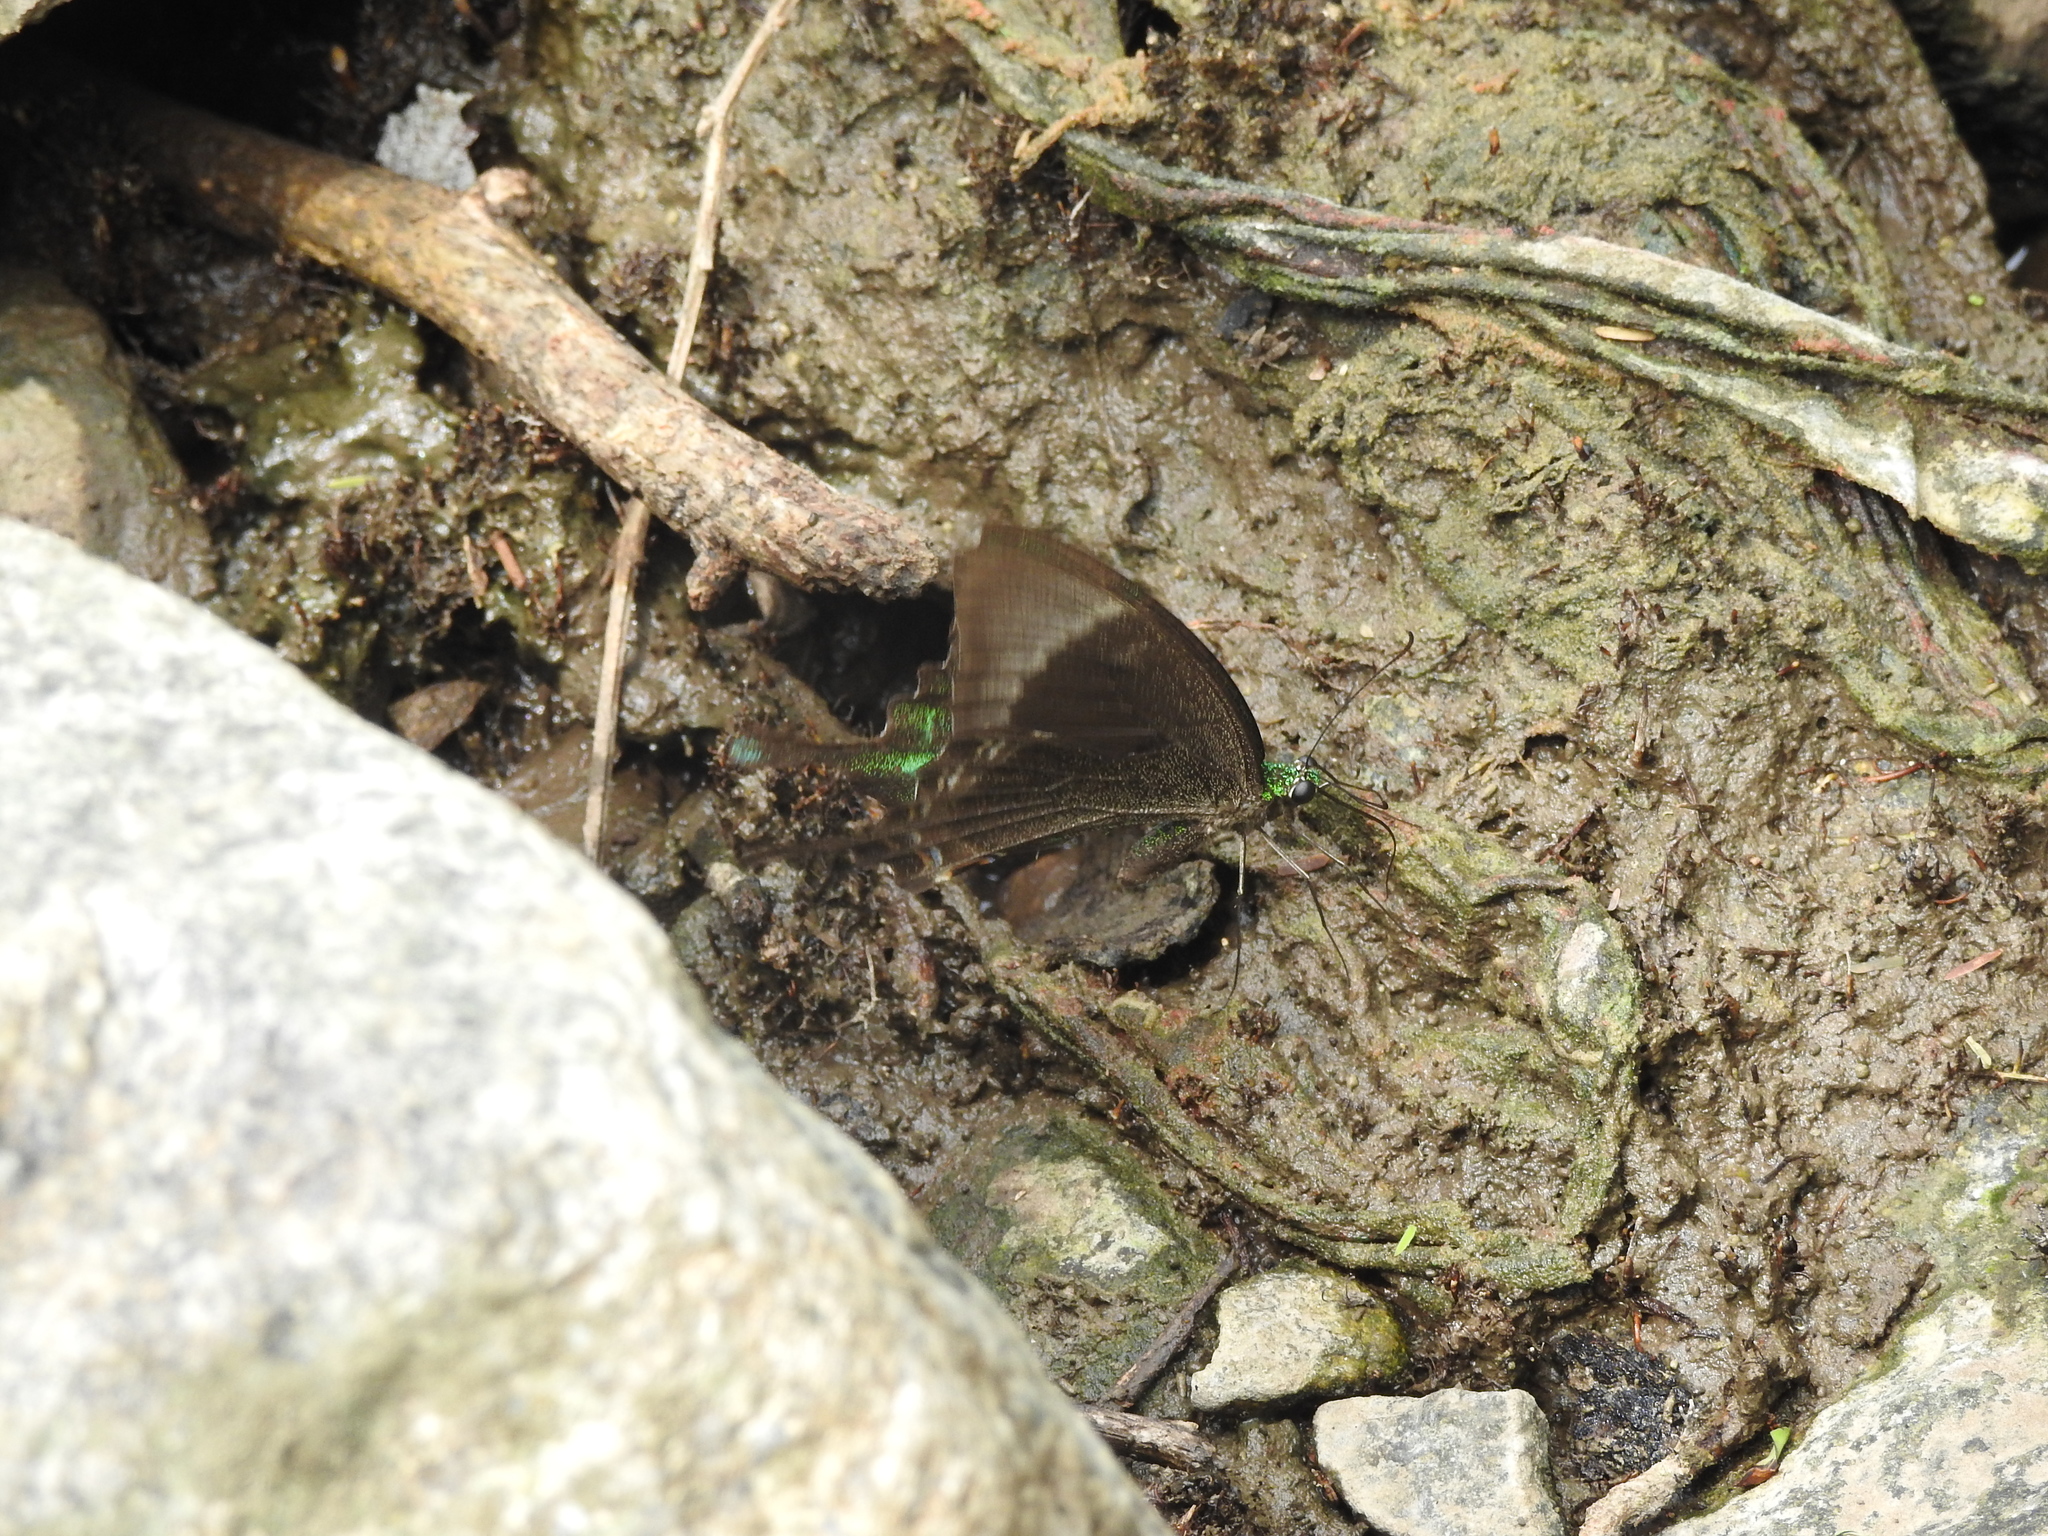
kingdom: Animalia
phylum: Arthropoda
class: Insecta
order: Lepidoptera
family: Papilionidae
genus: Papilio
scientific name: Papilio crino
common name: Common banded peacock
